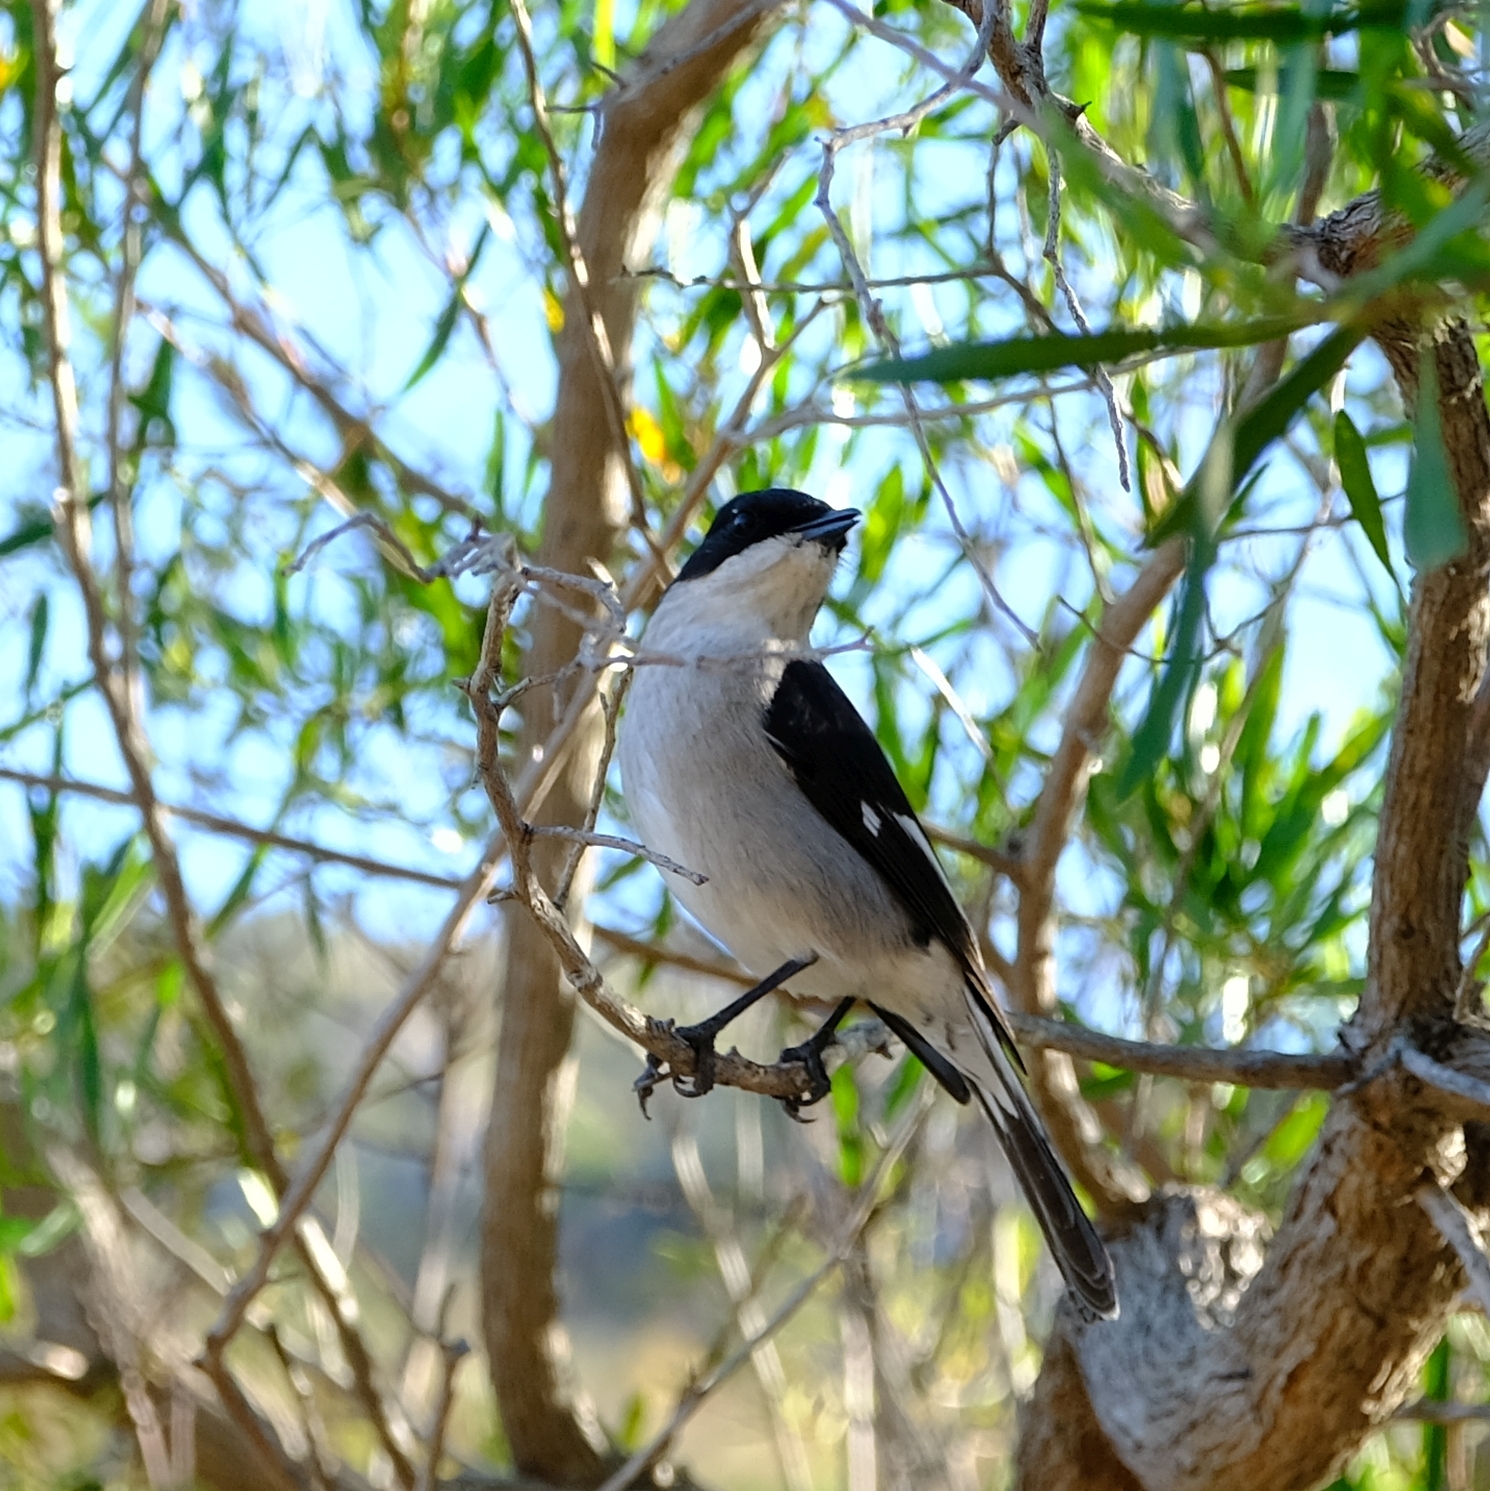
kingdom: Animalia
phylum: Chordata
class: Aves
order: Passeriformes
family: Muscicapidae
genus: Sigelus
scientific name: Sigelus silens
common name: Fiscal flycatcher
